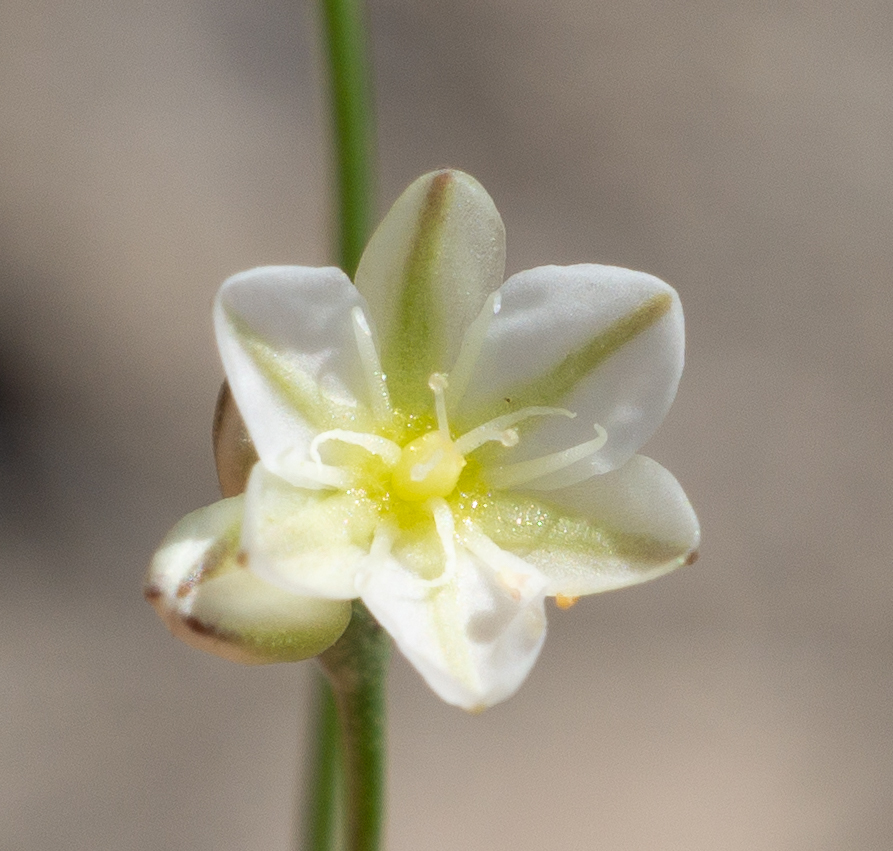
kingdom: Plantae
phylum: Tracheophyta
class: Magnoliopsida
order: Caryophyllales
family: Polygonaceae
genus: Eriogonum
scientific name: Eriogonum gordonii
